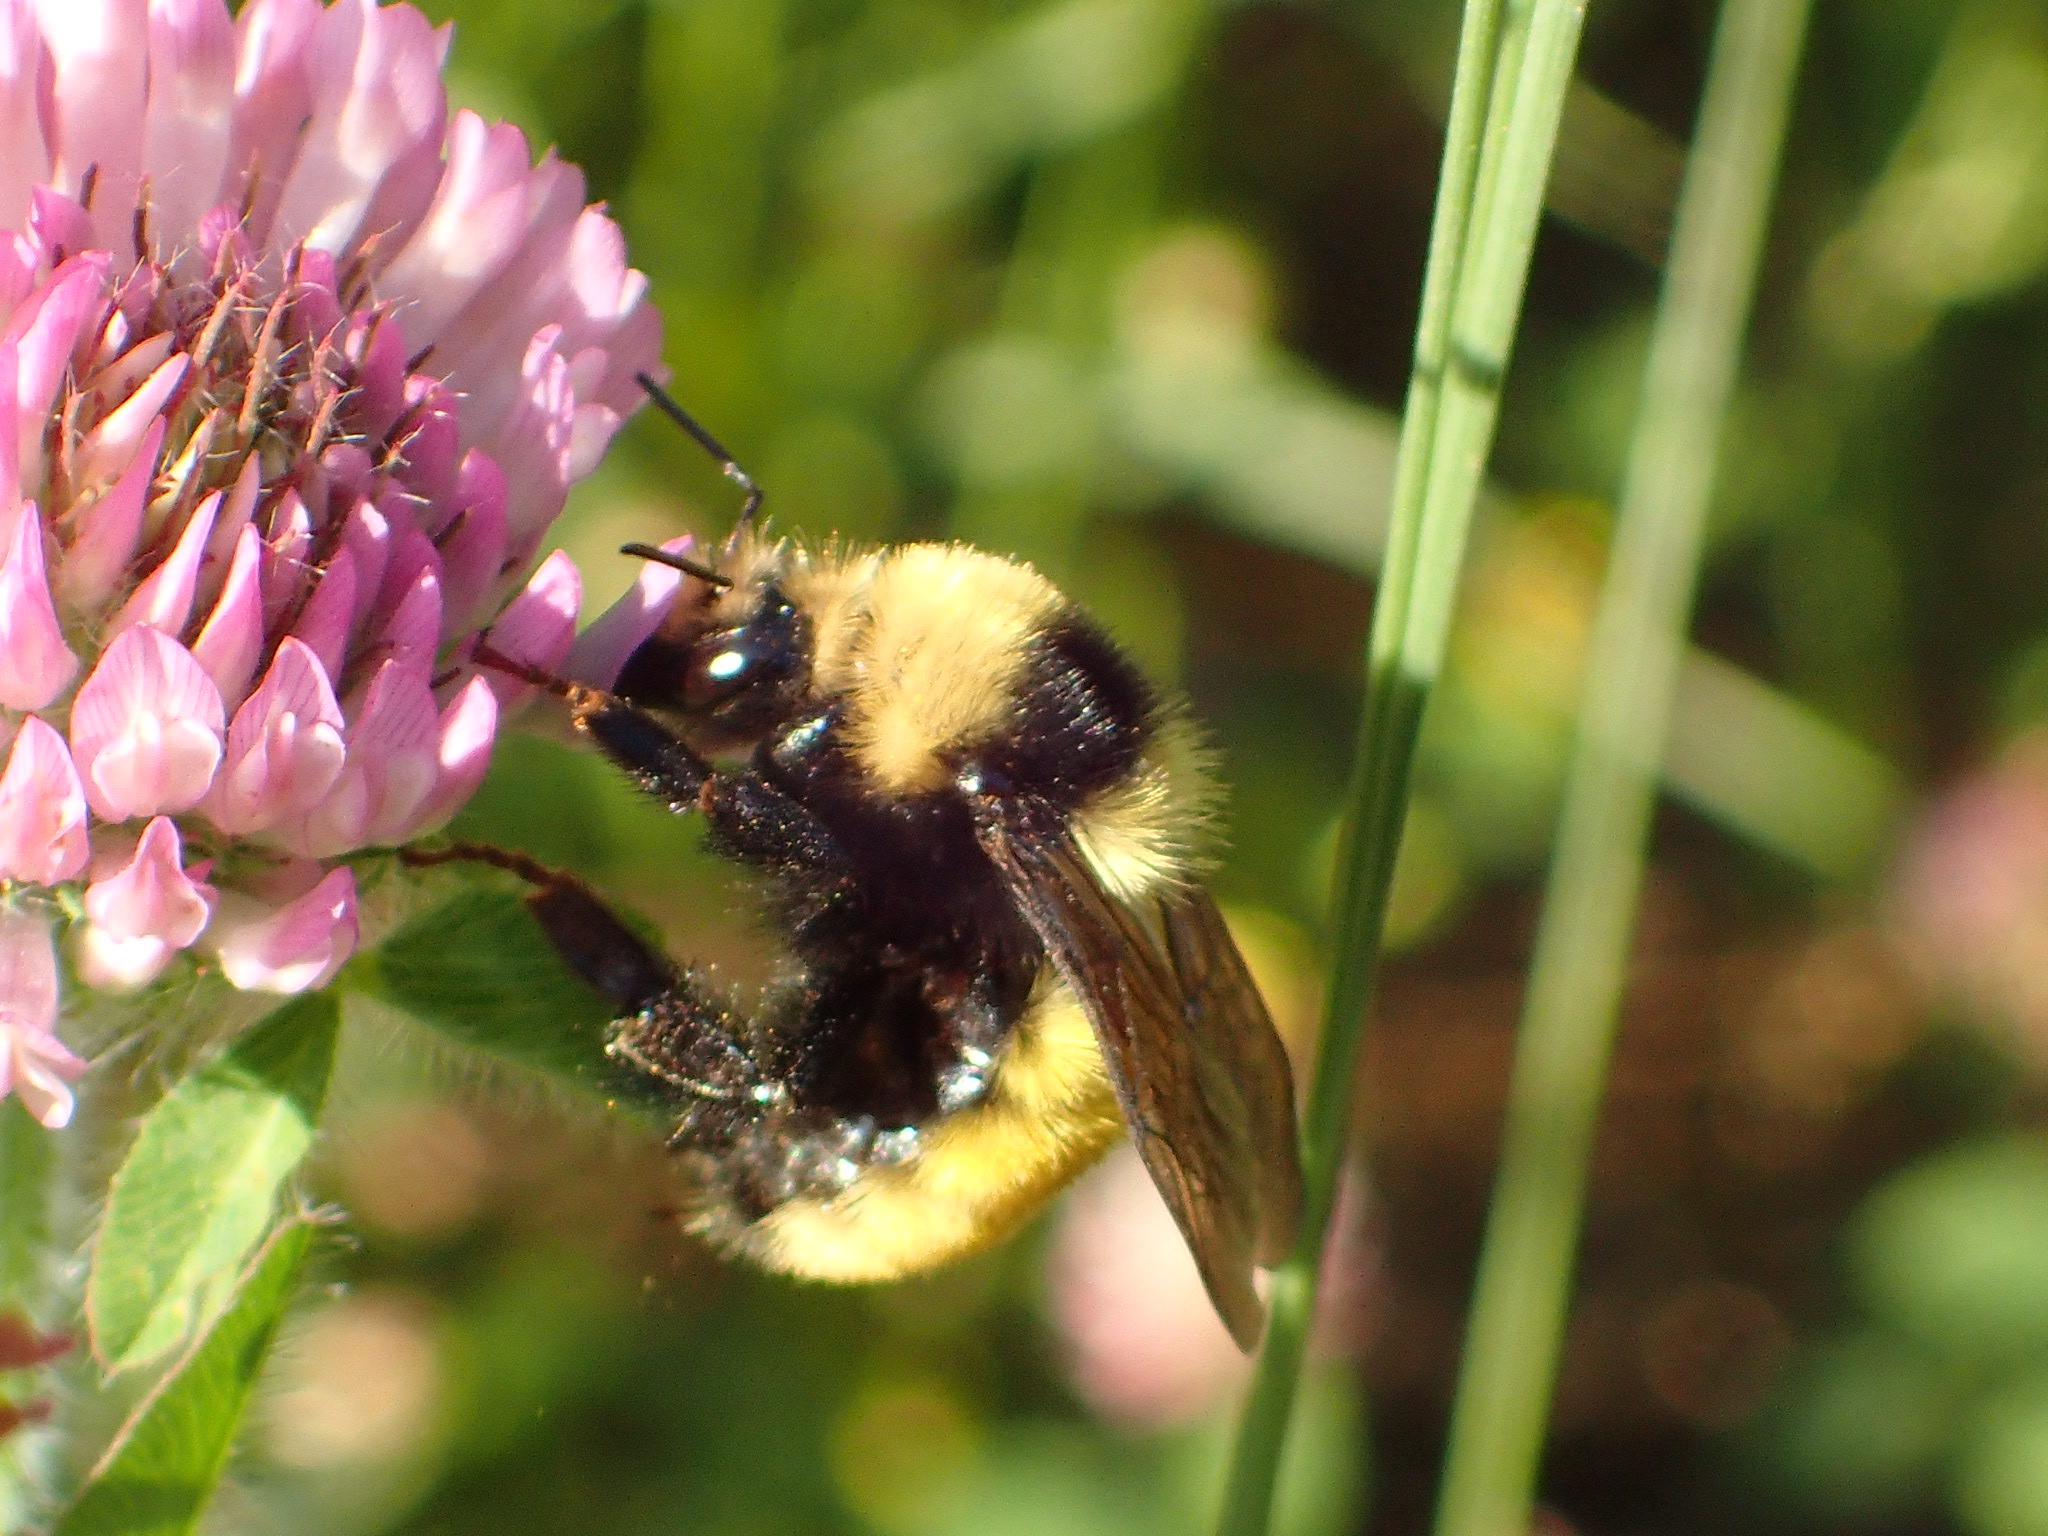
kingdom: Animalia
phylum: Arthropoda
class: Insecta
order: Hymenoptera
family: Apidae
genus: Bombus
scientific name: Bombus borealis
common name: Northern amber bumble bee
